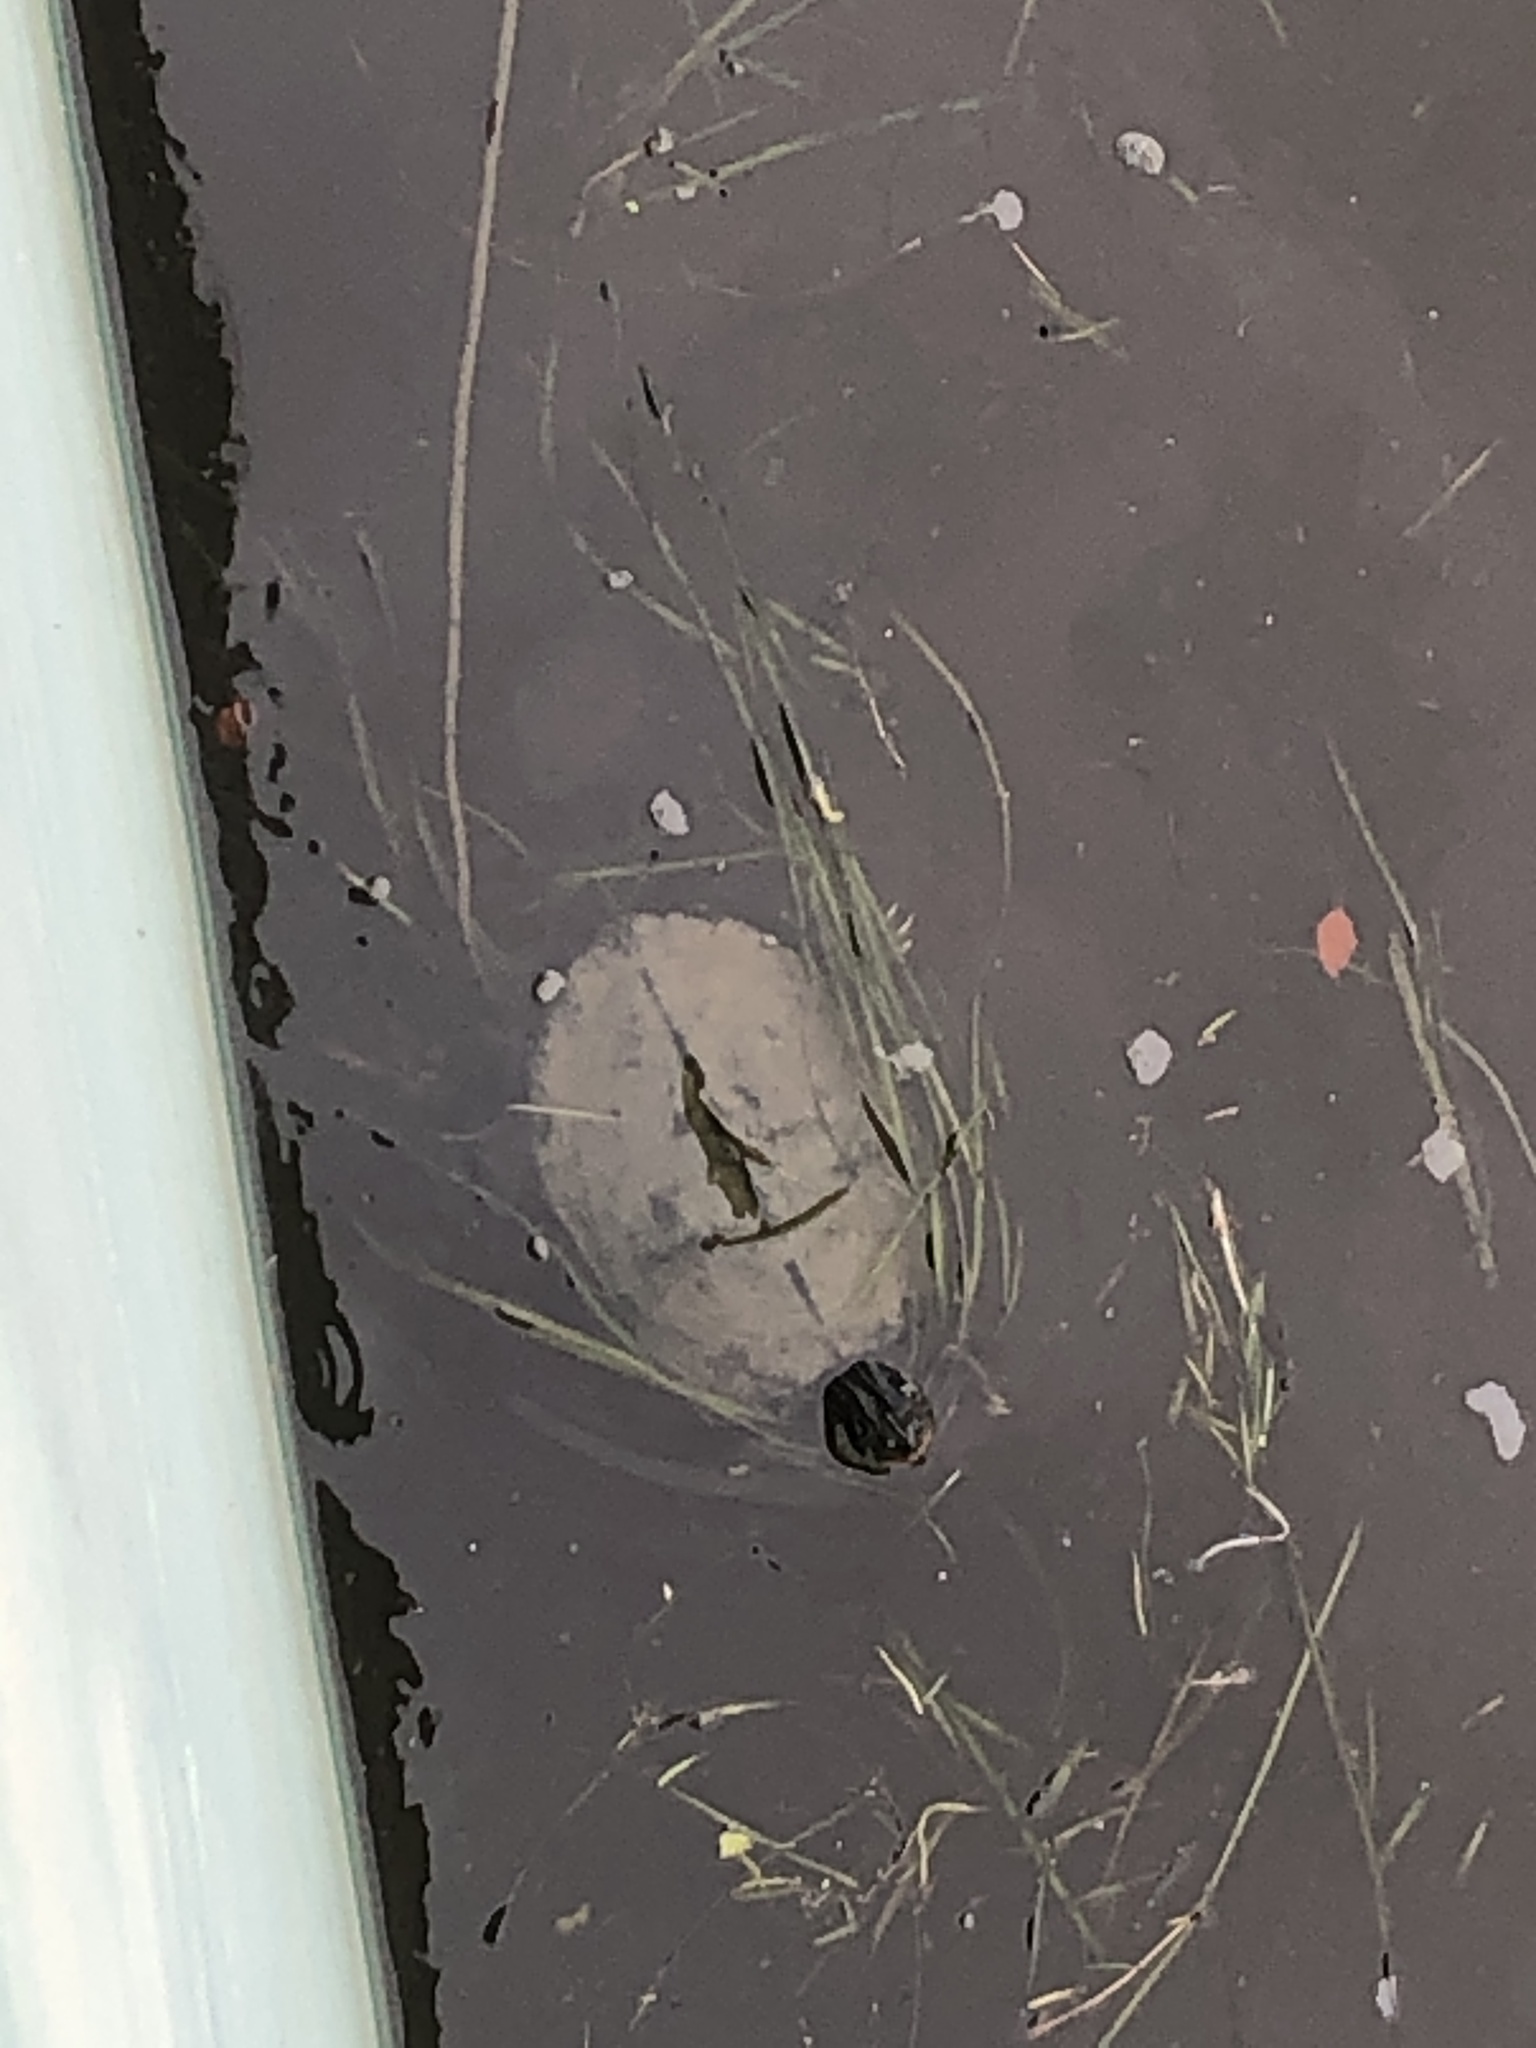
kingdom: Animalia
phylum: Chordata
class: Testudines
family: Emydidae
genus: Graptemys
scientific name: Graptemys geographica
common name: Common map turtle
